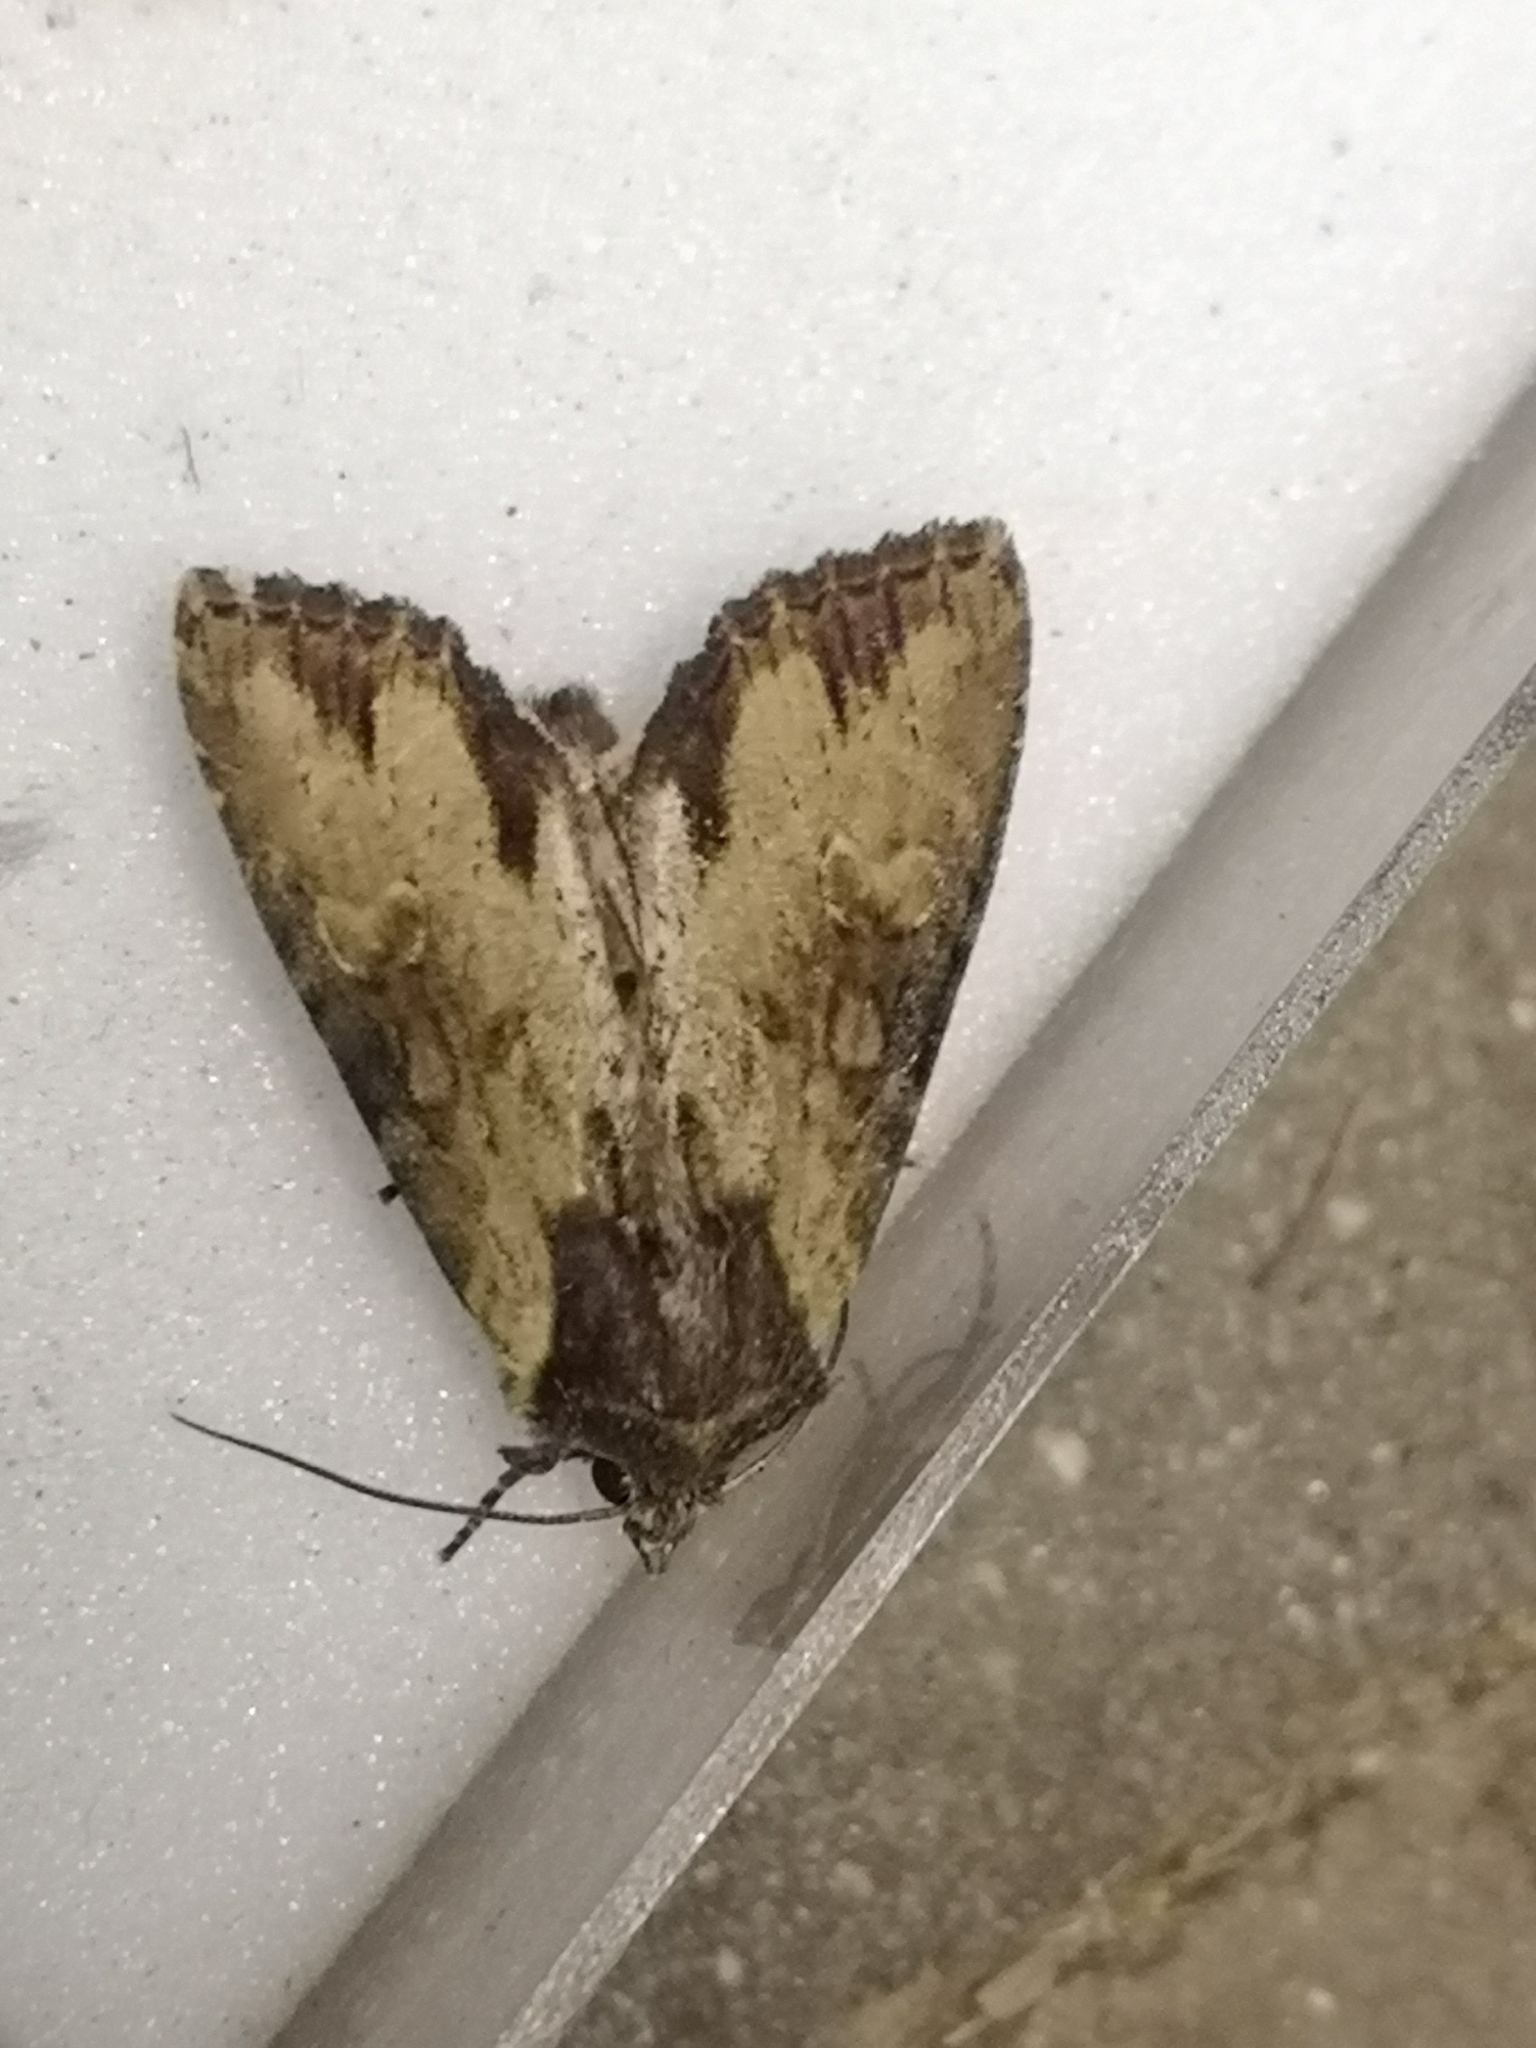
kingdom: Animalia
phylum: Arthropoda
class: Insecta
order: Lepidoptera
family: Noctuidae
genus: Apamea
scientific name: Apamea crenata
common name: Clouded-bordered brindle
